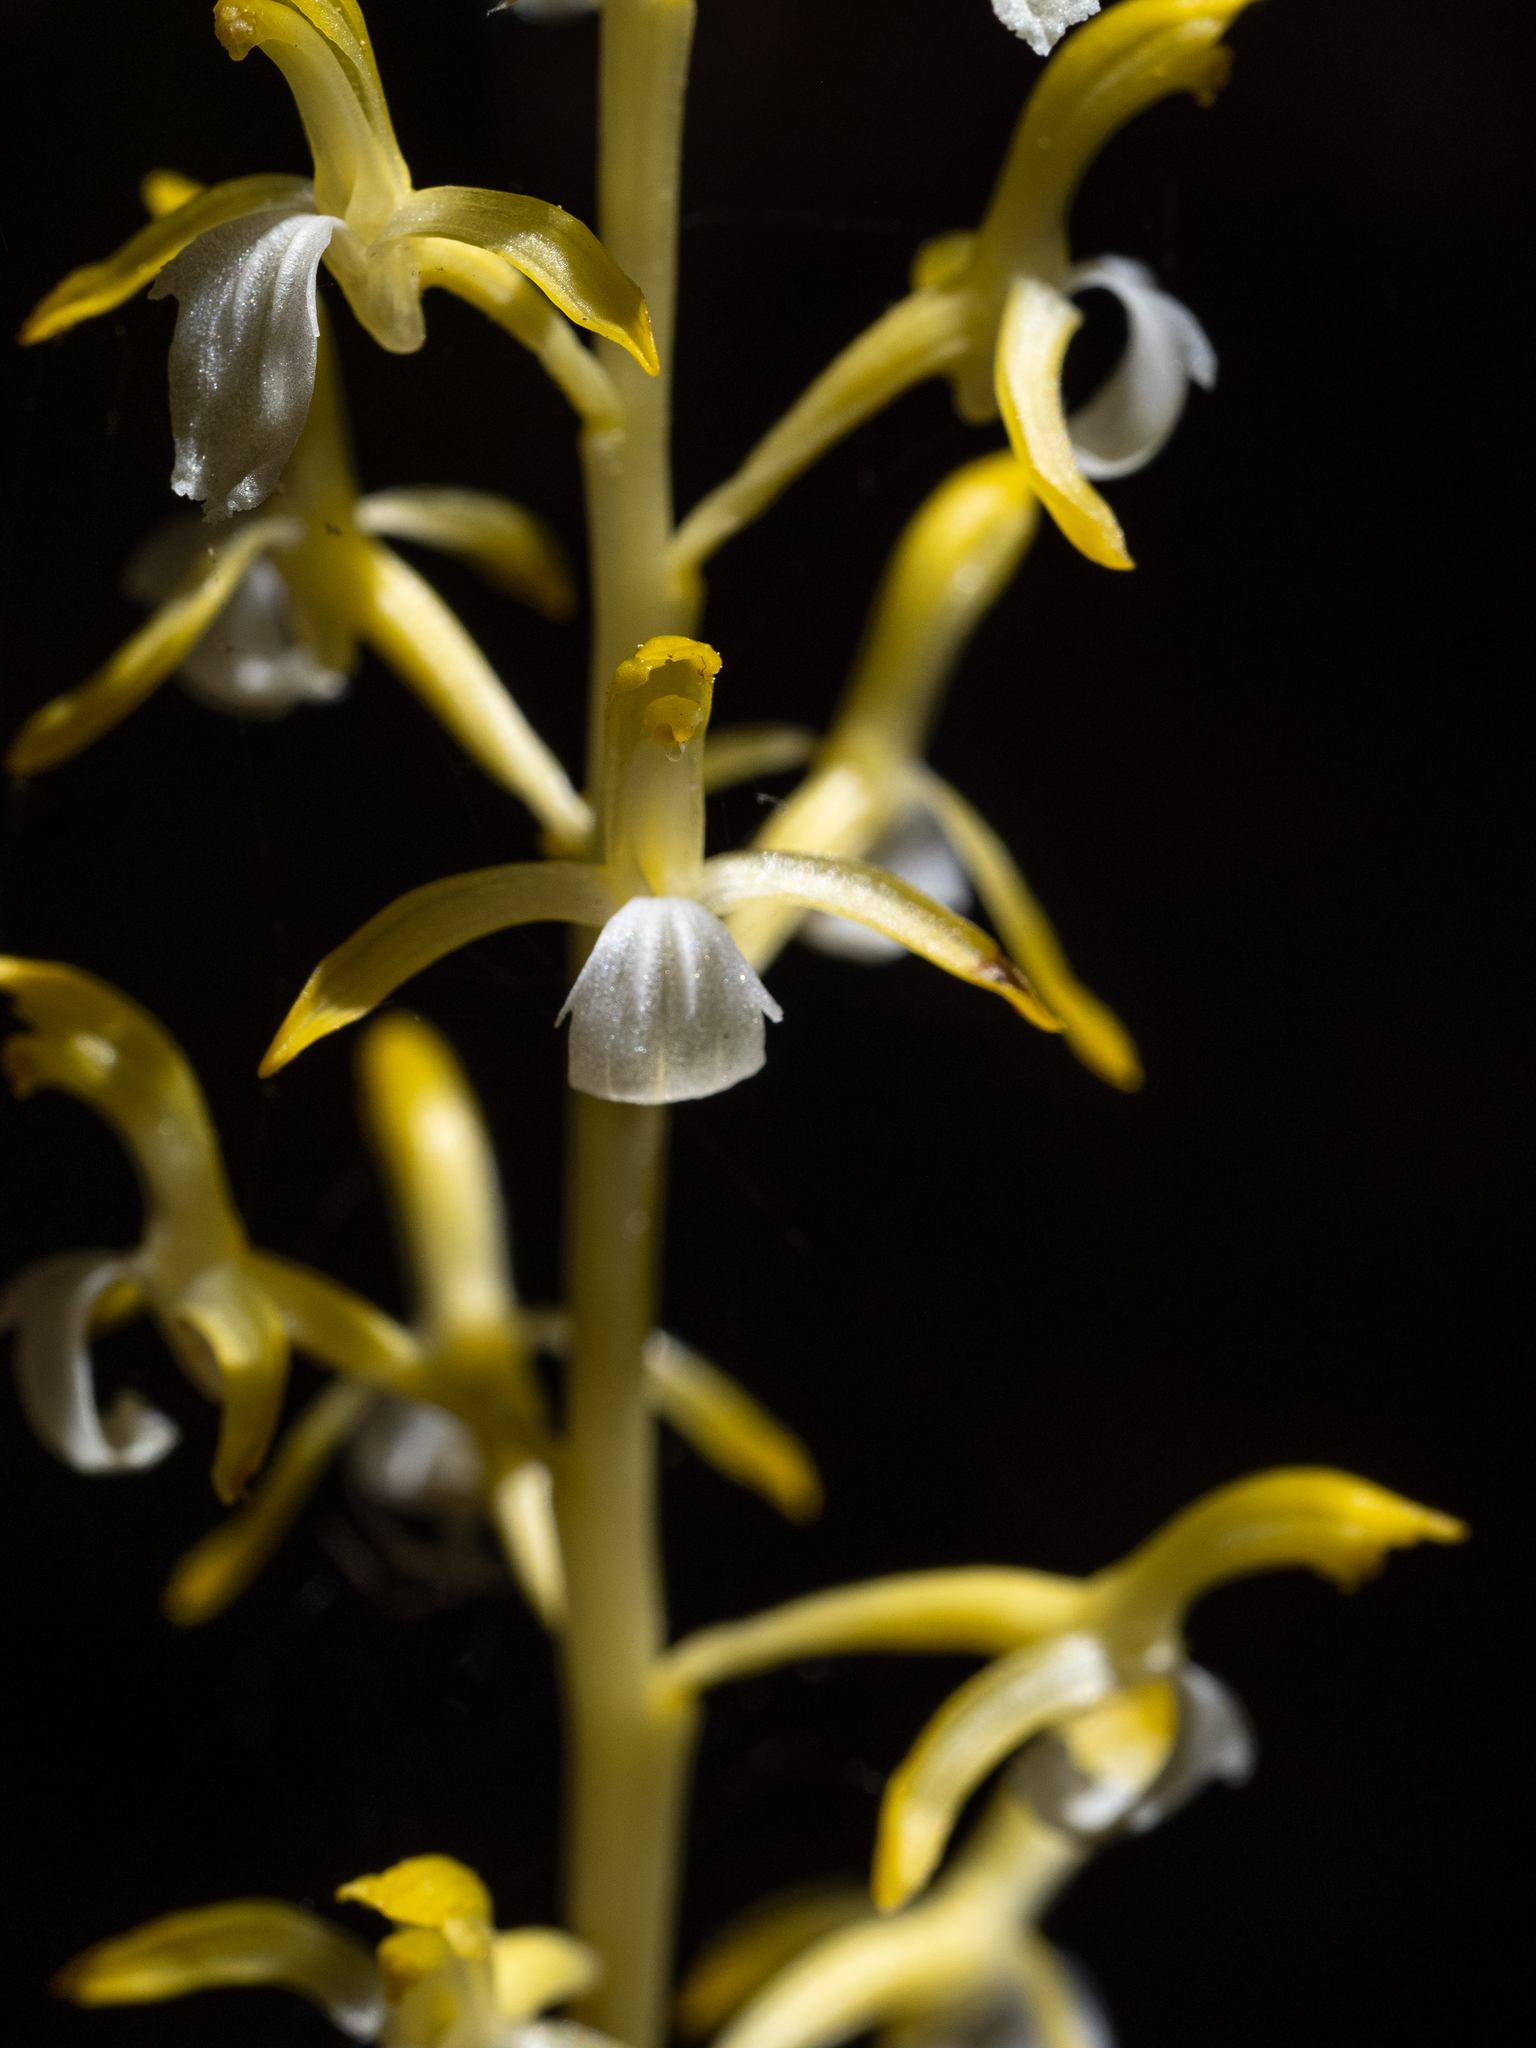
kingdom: Plantae
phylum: Tracheophyta
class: Liliopsida
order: Asparagales
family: Orchidaceae
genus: Corallorhiza
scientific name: Corallorhiza mertensiana
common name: Pacific coralroot
